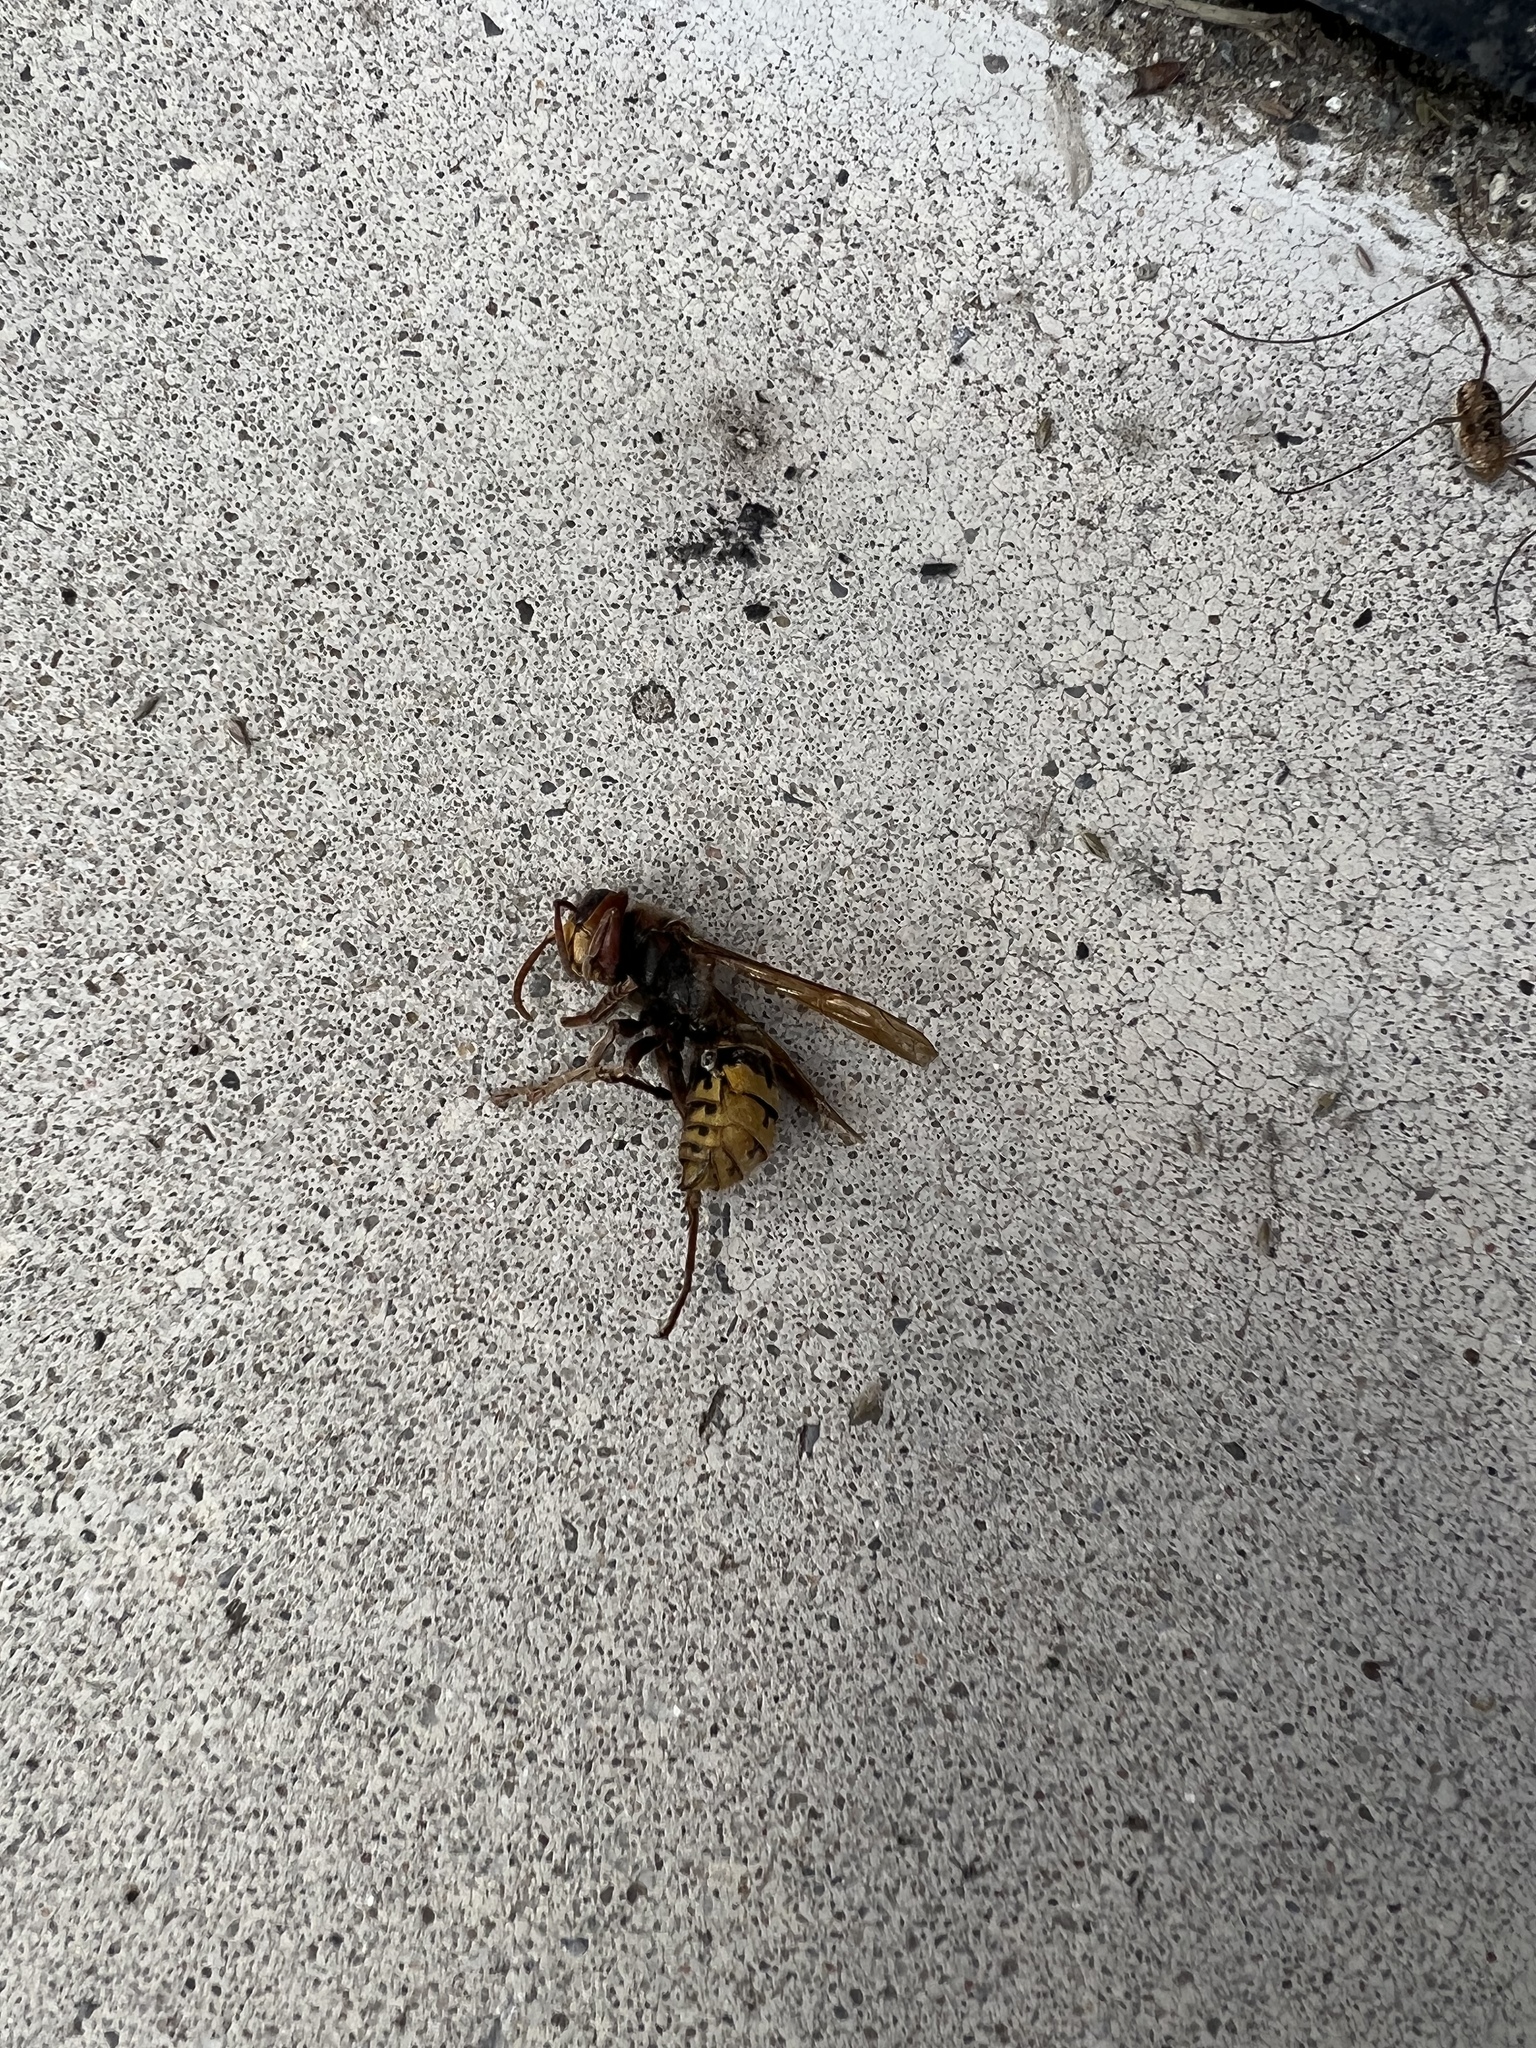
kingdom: Animalia
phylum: Arthropoda
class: Insecta
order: Hymenoptera
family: Vespidae
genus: Vespa
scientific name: Vespa crabro
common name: Hornet
